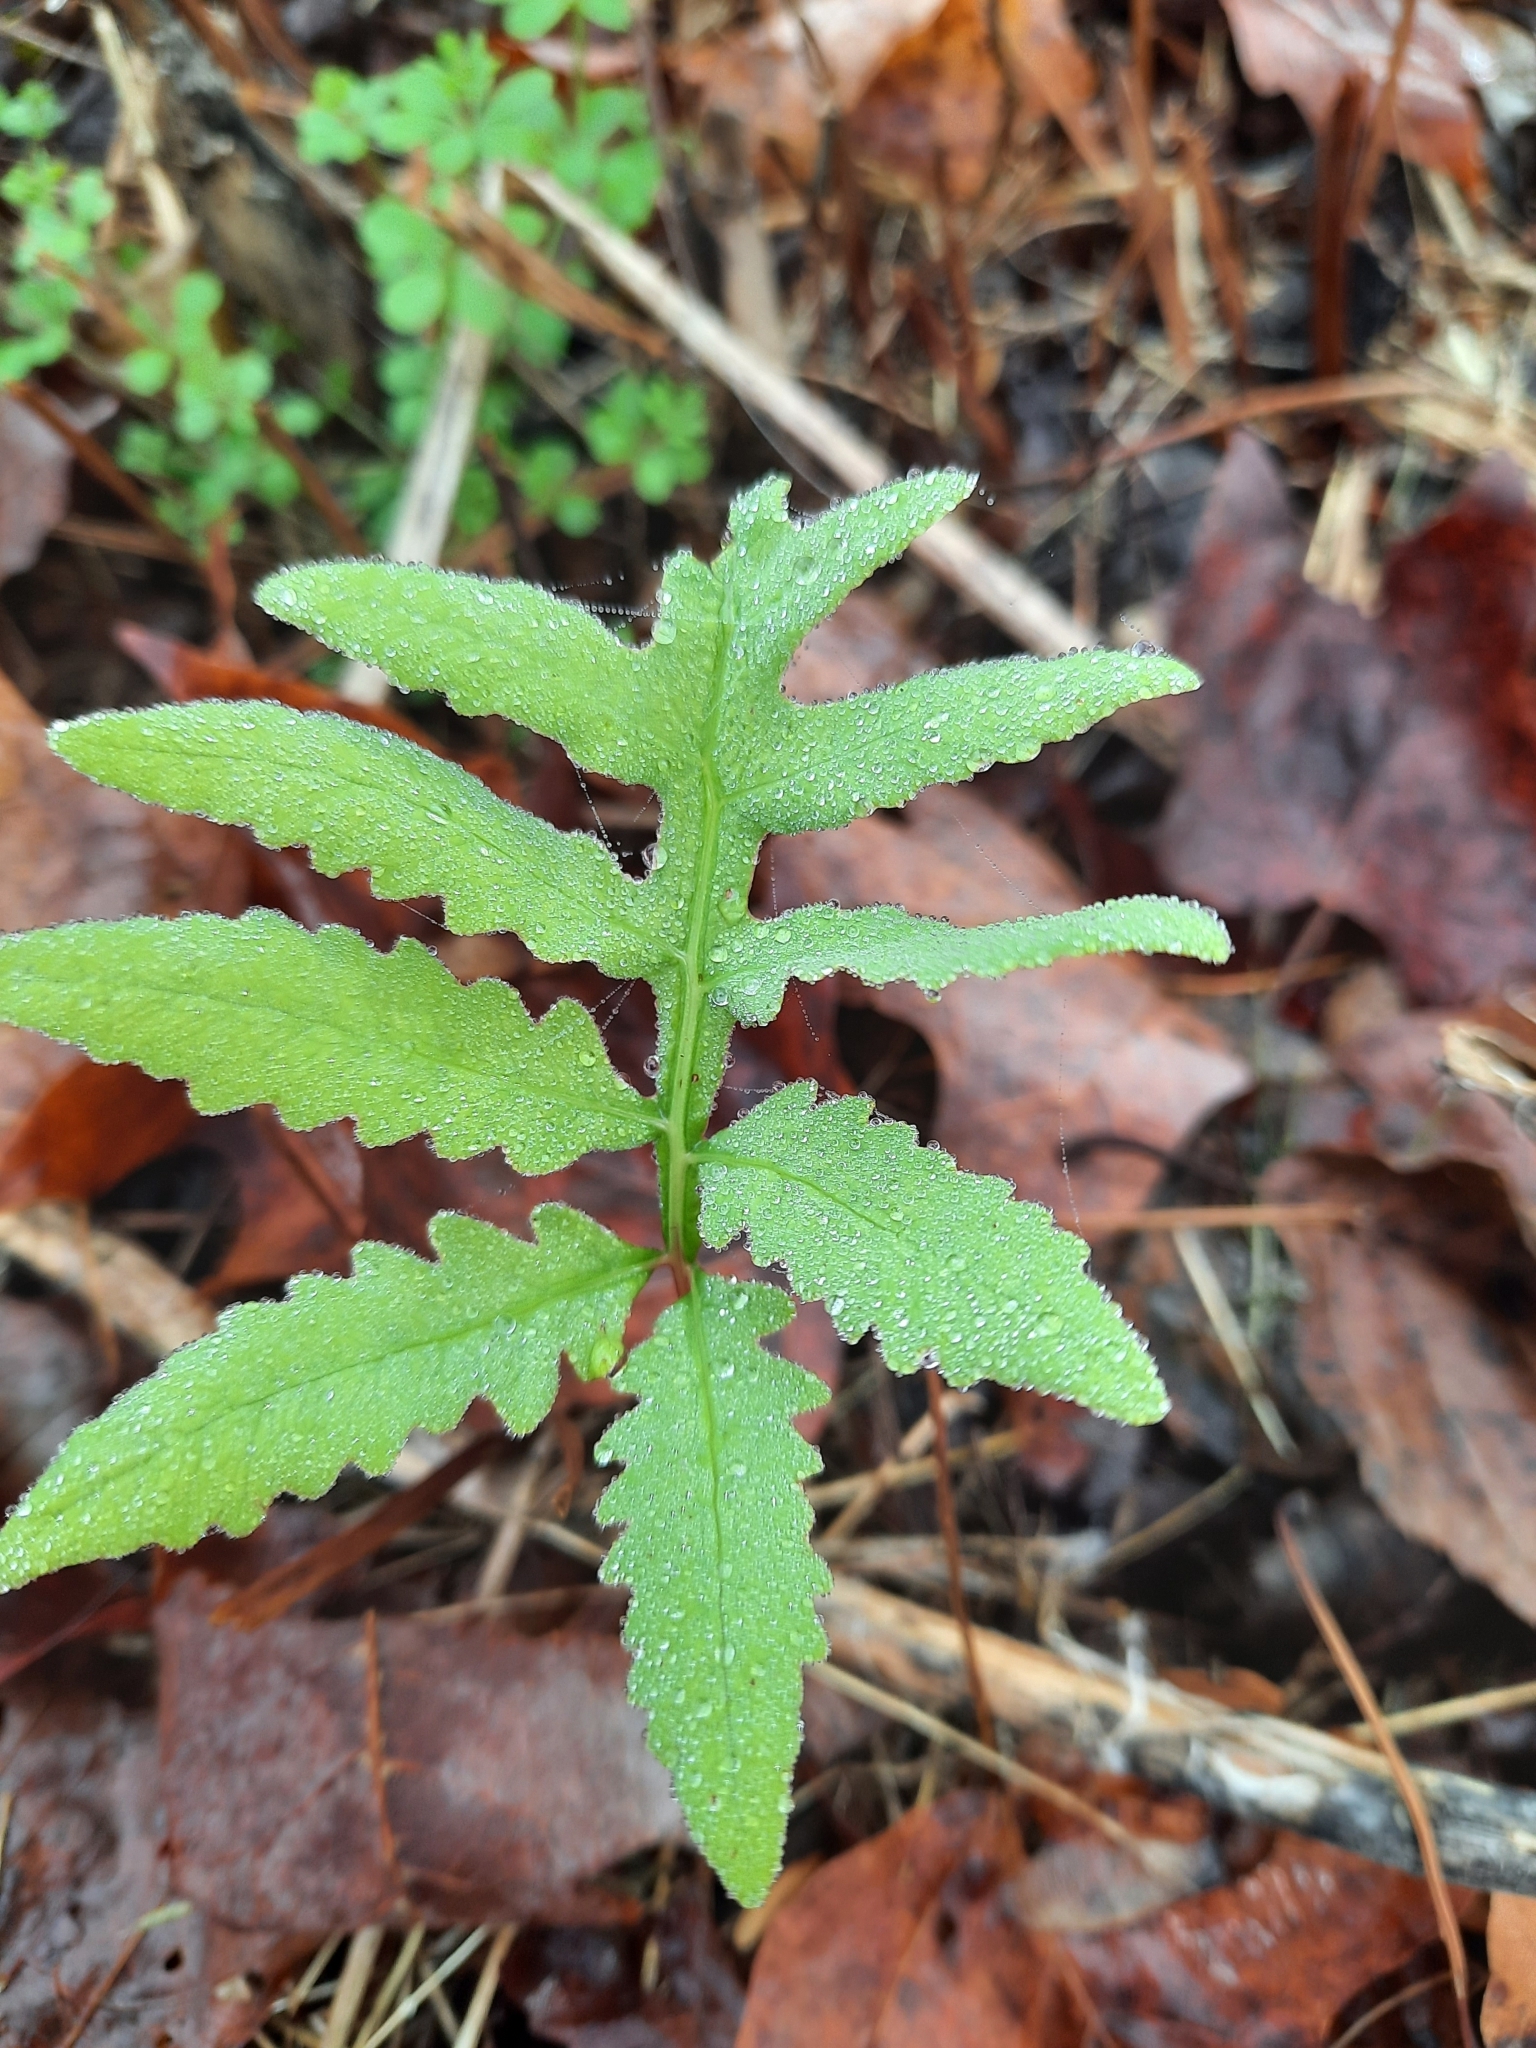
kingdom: Plantae
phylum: Tracheophyta
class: Polypodiopsida
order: Polypodiales
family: Onocleaceae
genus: Onoclea
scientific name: Onoclea sensibilis
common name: Sensitive fern
